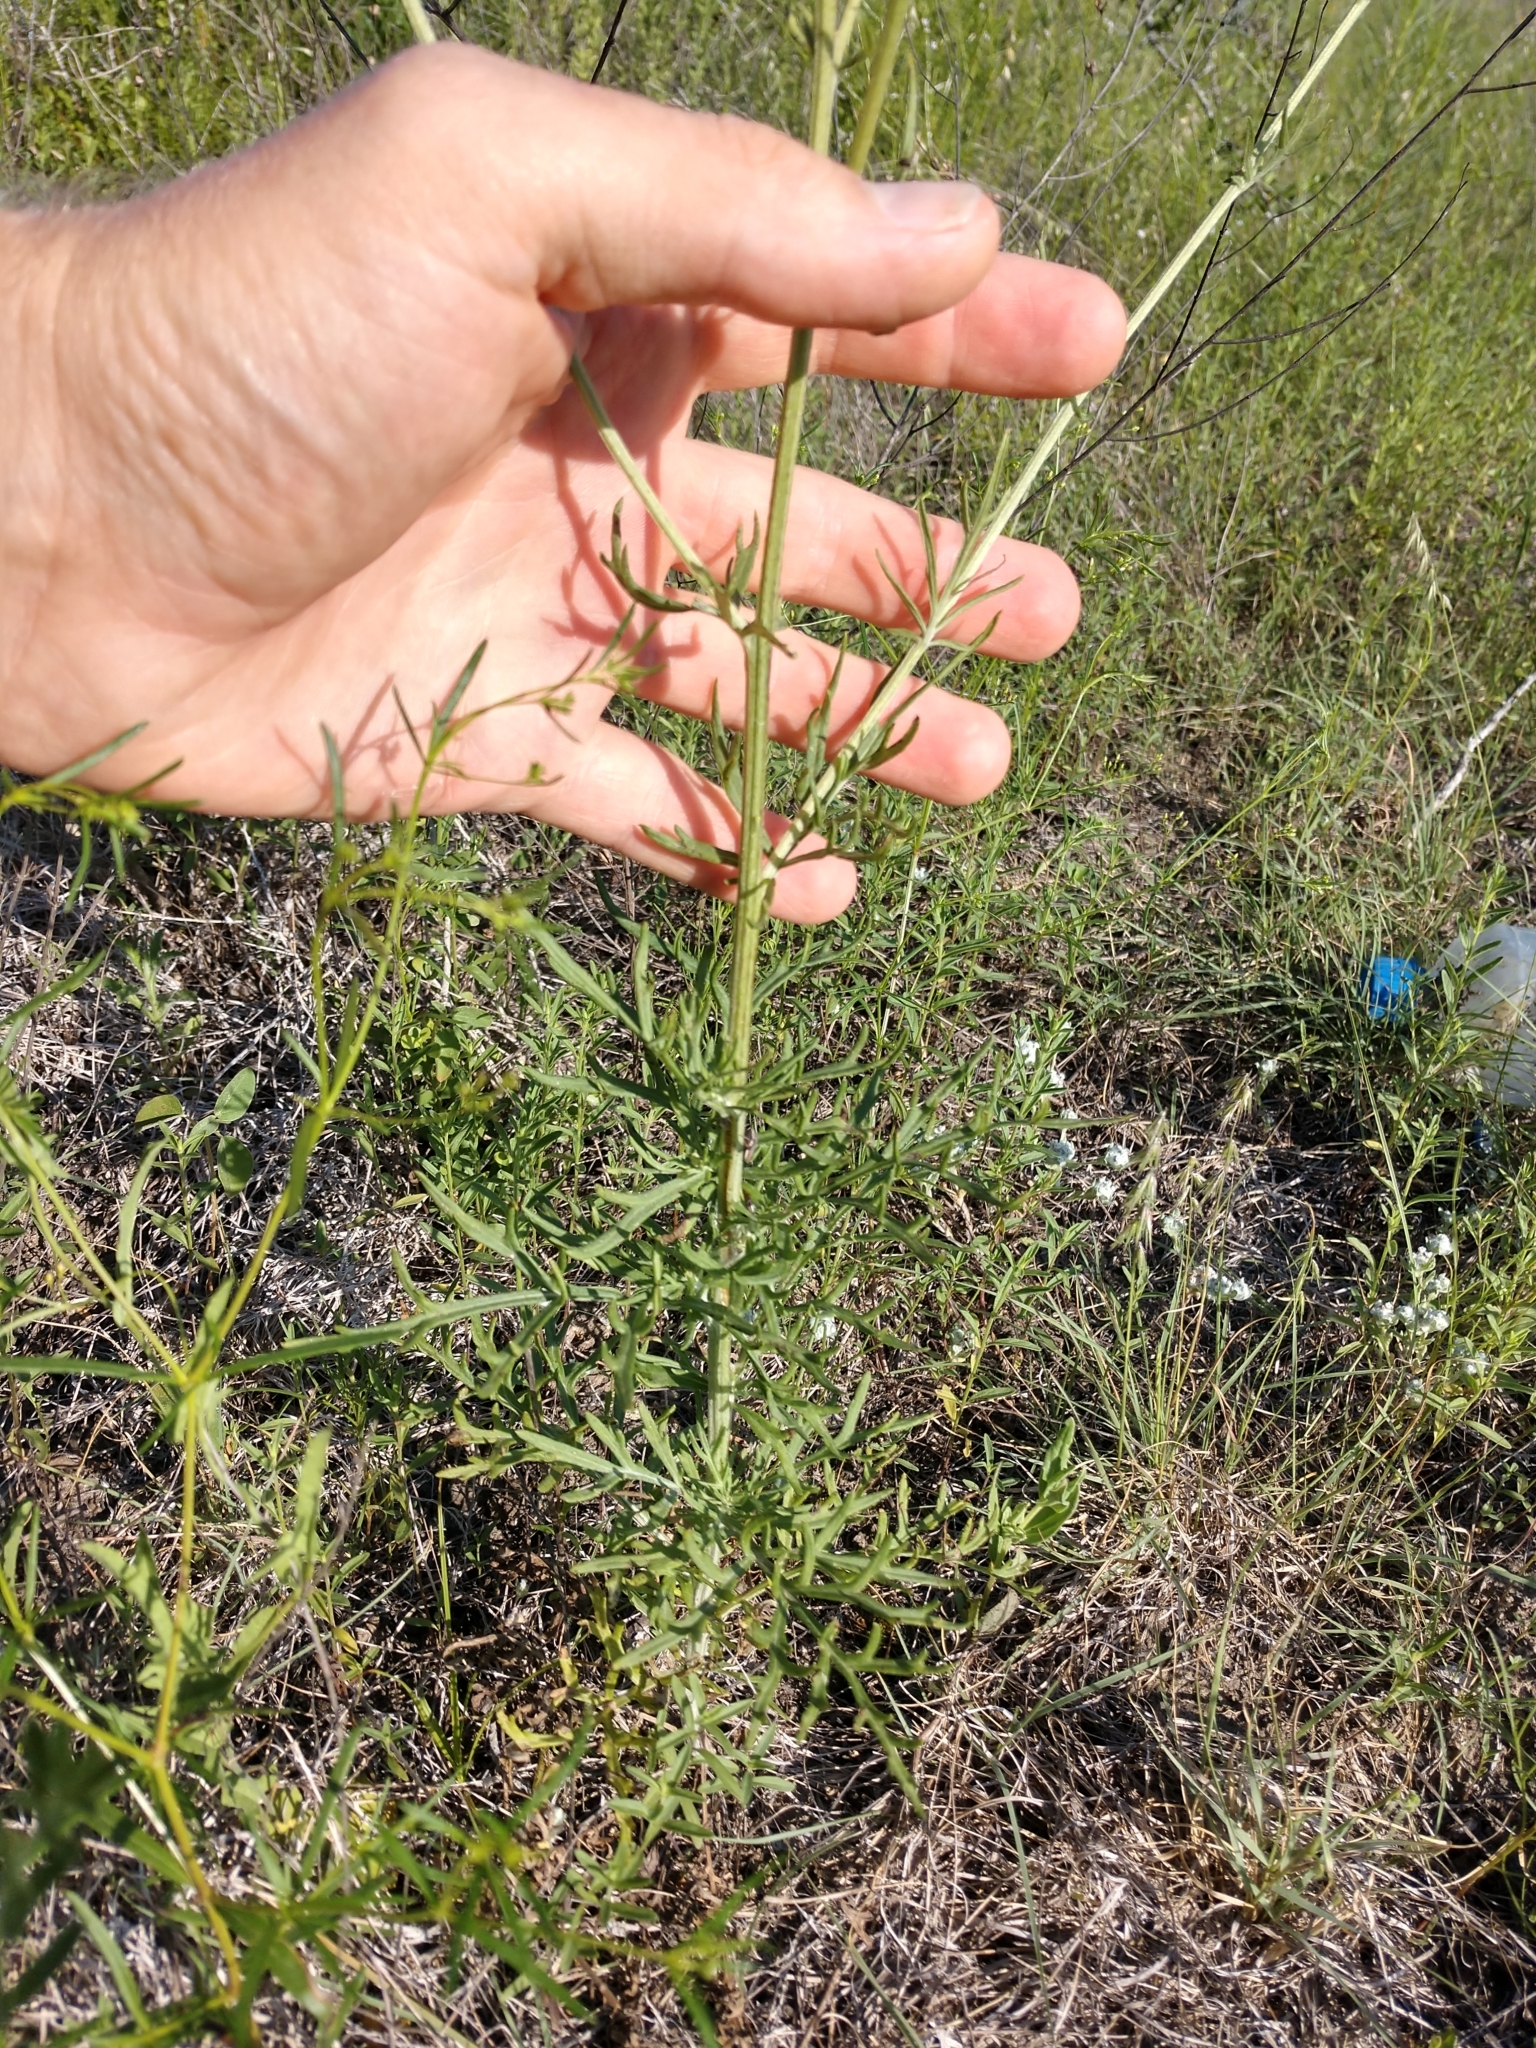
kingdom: Plantae
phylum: Tracheophyta
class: Magnoliopsida
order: Asterales
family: Asteraceae
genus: Hymenopappus
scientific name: Hymenopappus scabiosaeus
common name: Carolina woollywhite
